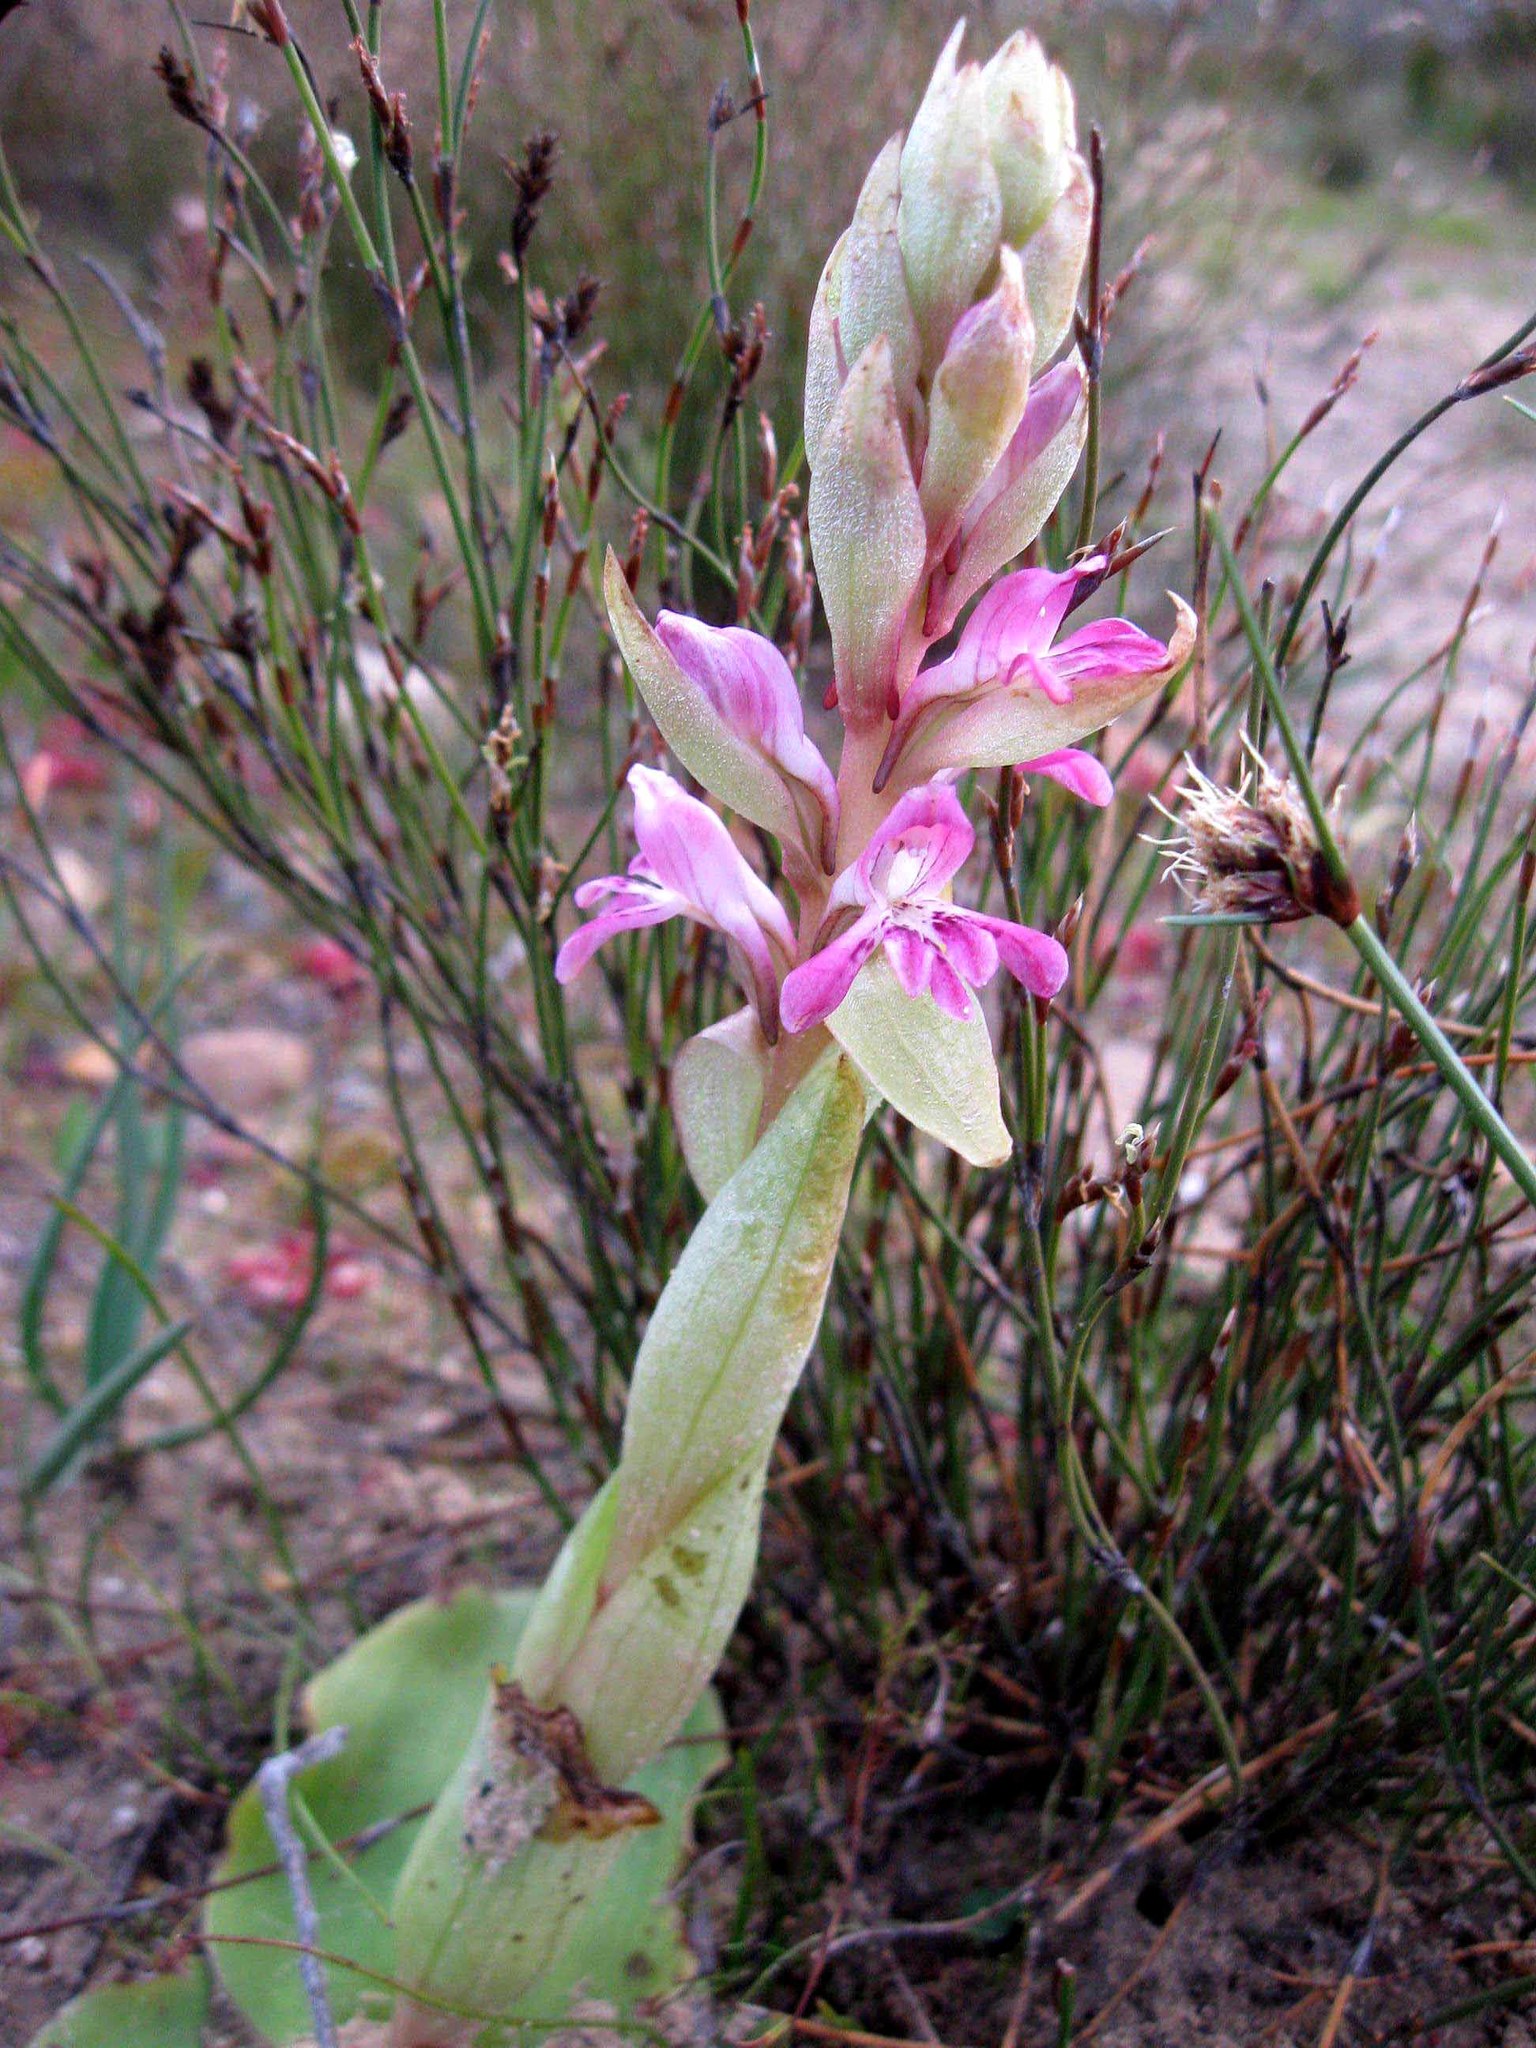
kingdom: Plantae
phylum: Tracheophyta
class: Liliopsida
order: Asparagales
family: Orchidaceae
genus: Satyrium
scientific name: Satyrium erectum
